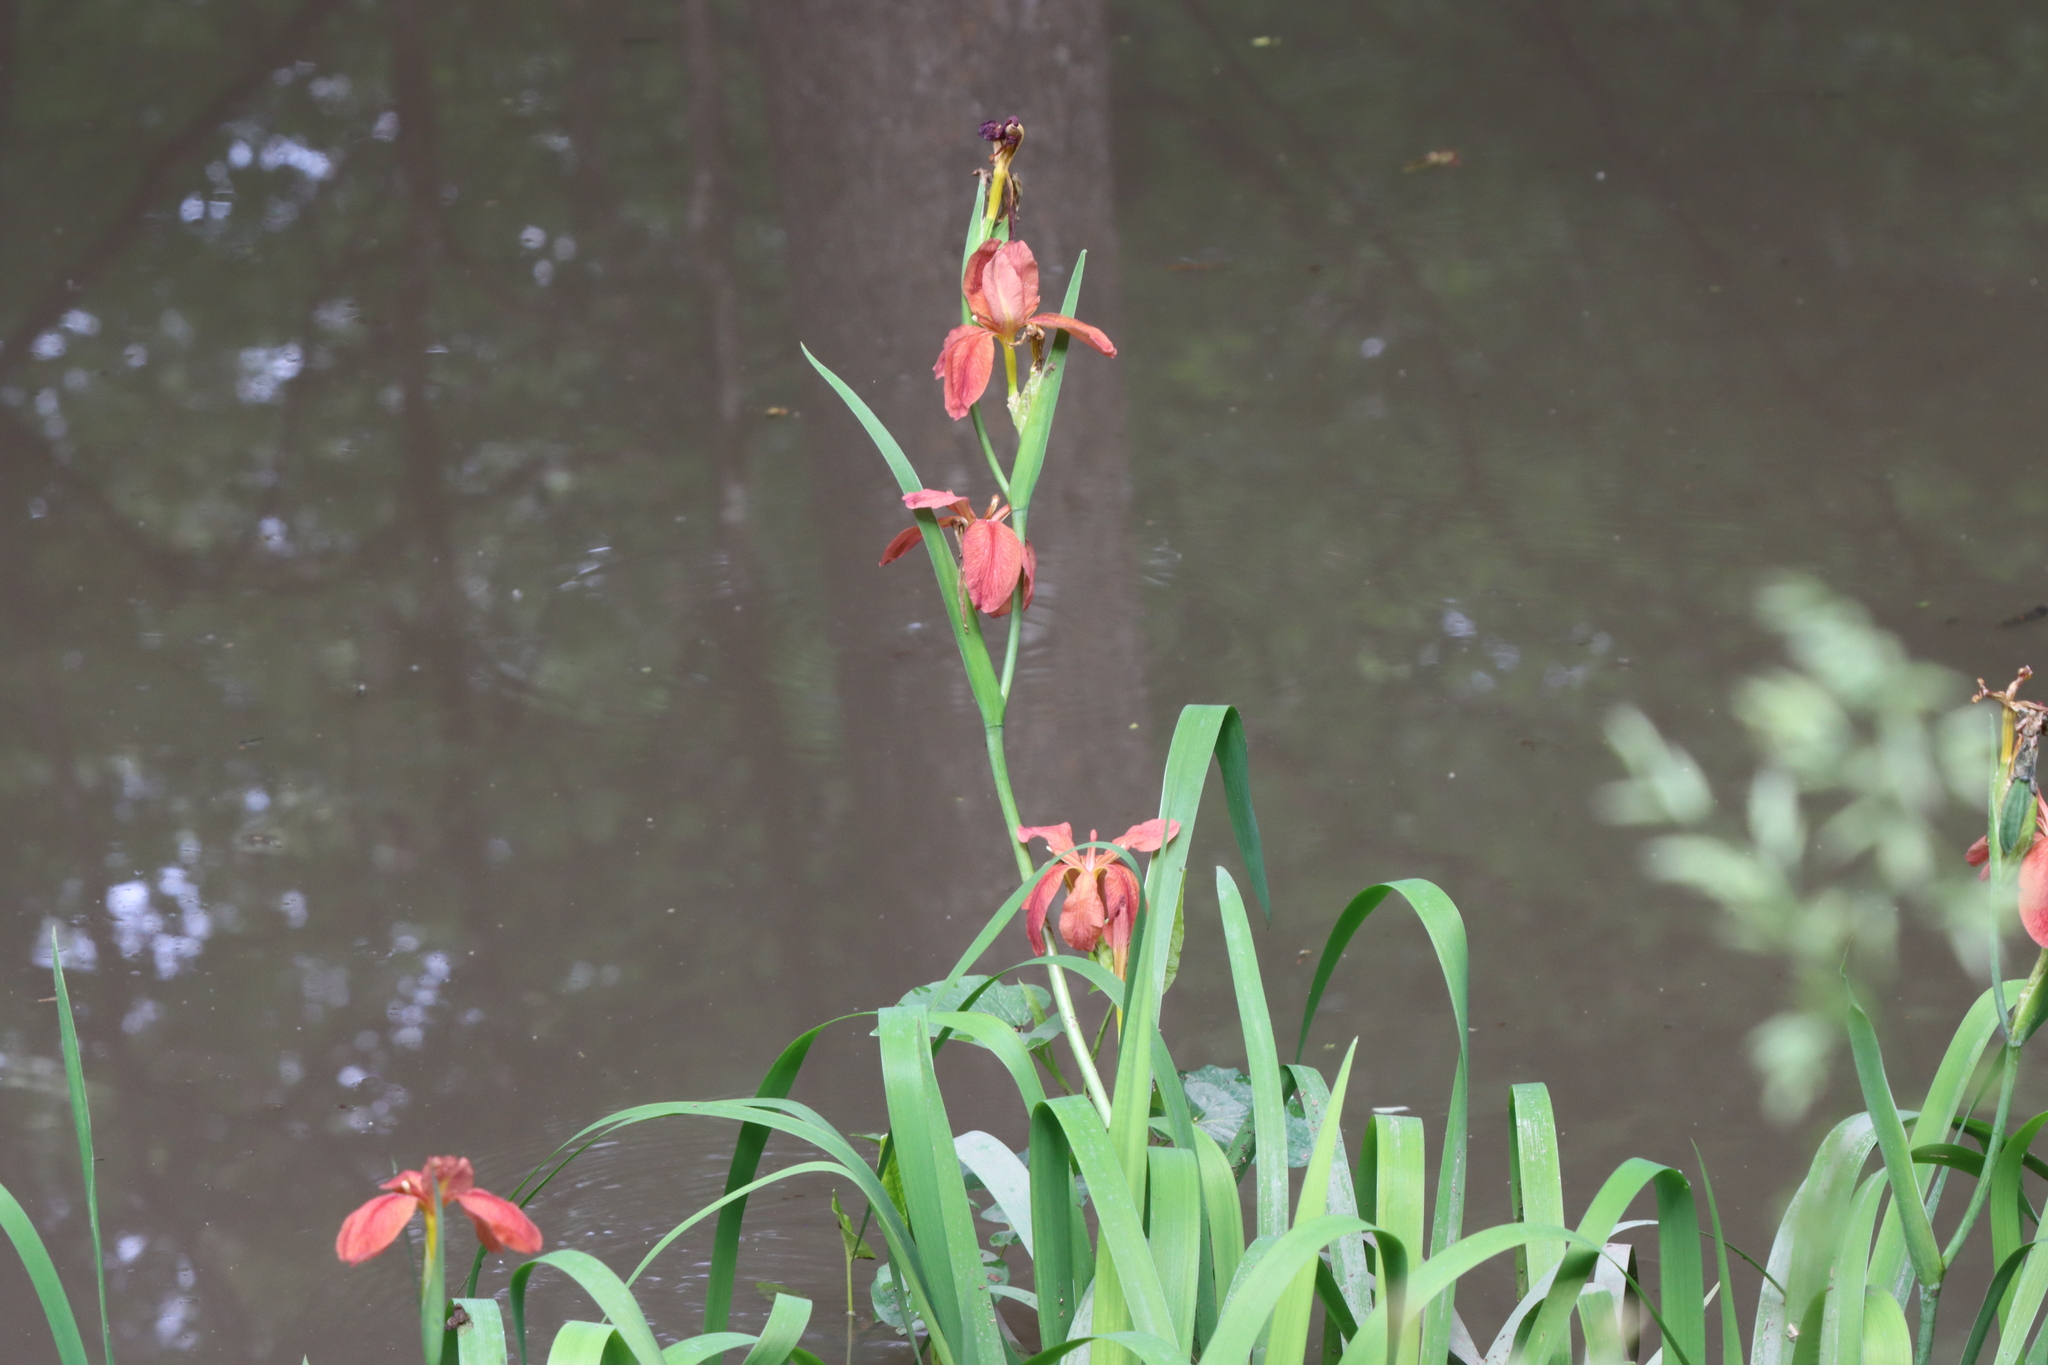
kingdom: Plantae
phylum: Tracheophyta
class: Liliopsida
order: Asparagales
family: Iridaceae
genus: Iris
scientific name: Iris fulva
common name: Copper iris
